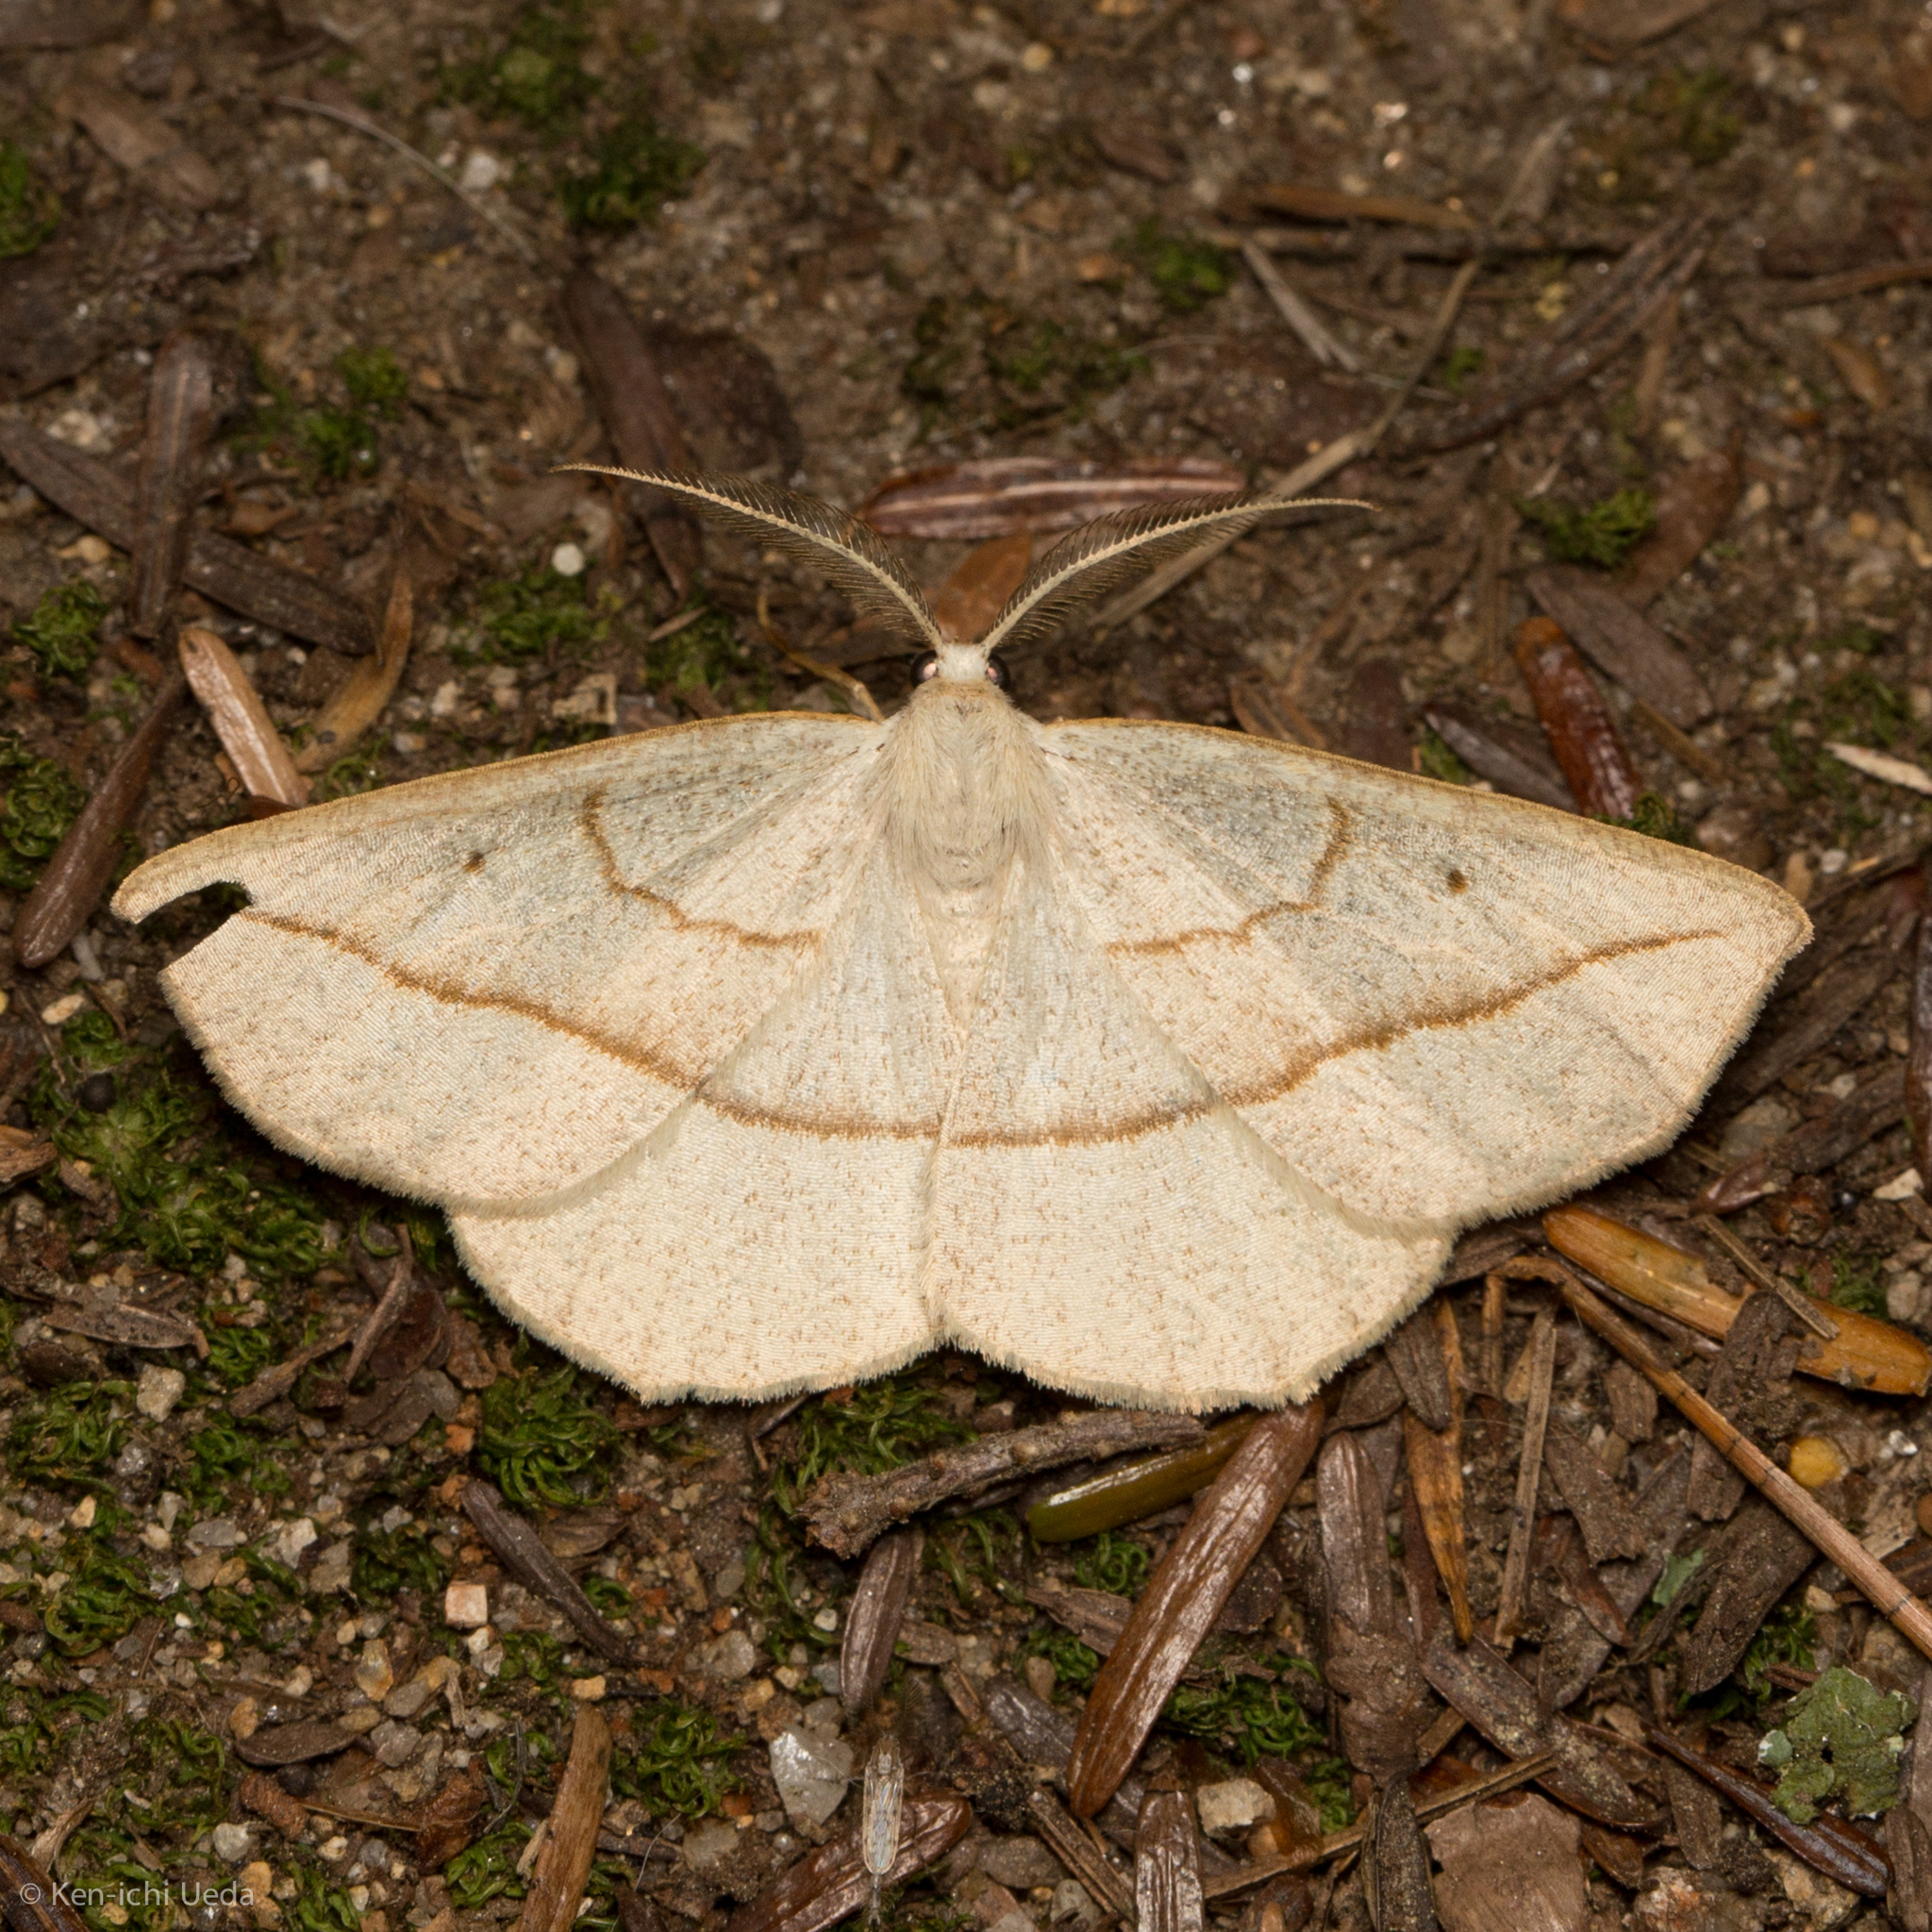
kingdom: Animalia
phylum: Arthropoda
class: Insecta
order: Lepidoptera
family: Geometridae
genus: Eusarca
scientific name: Eusarca confusaria
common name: Confused eusarca
